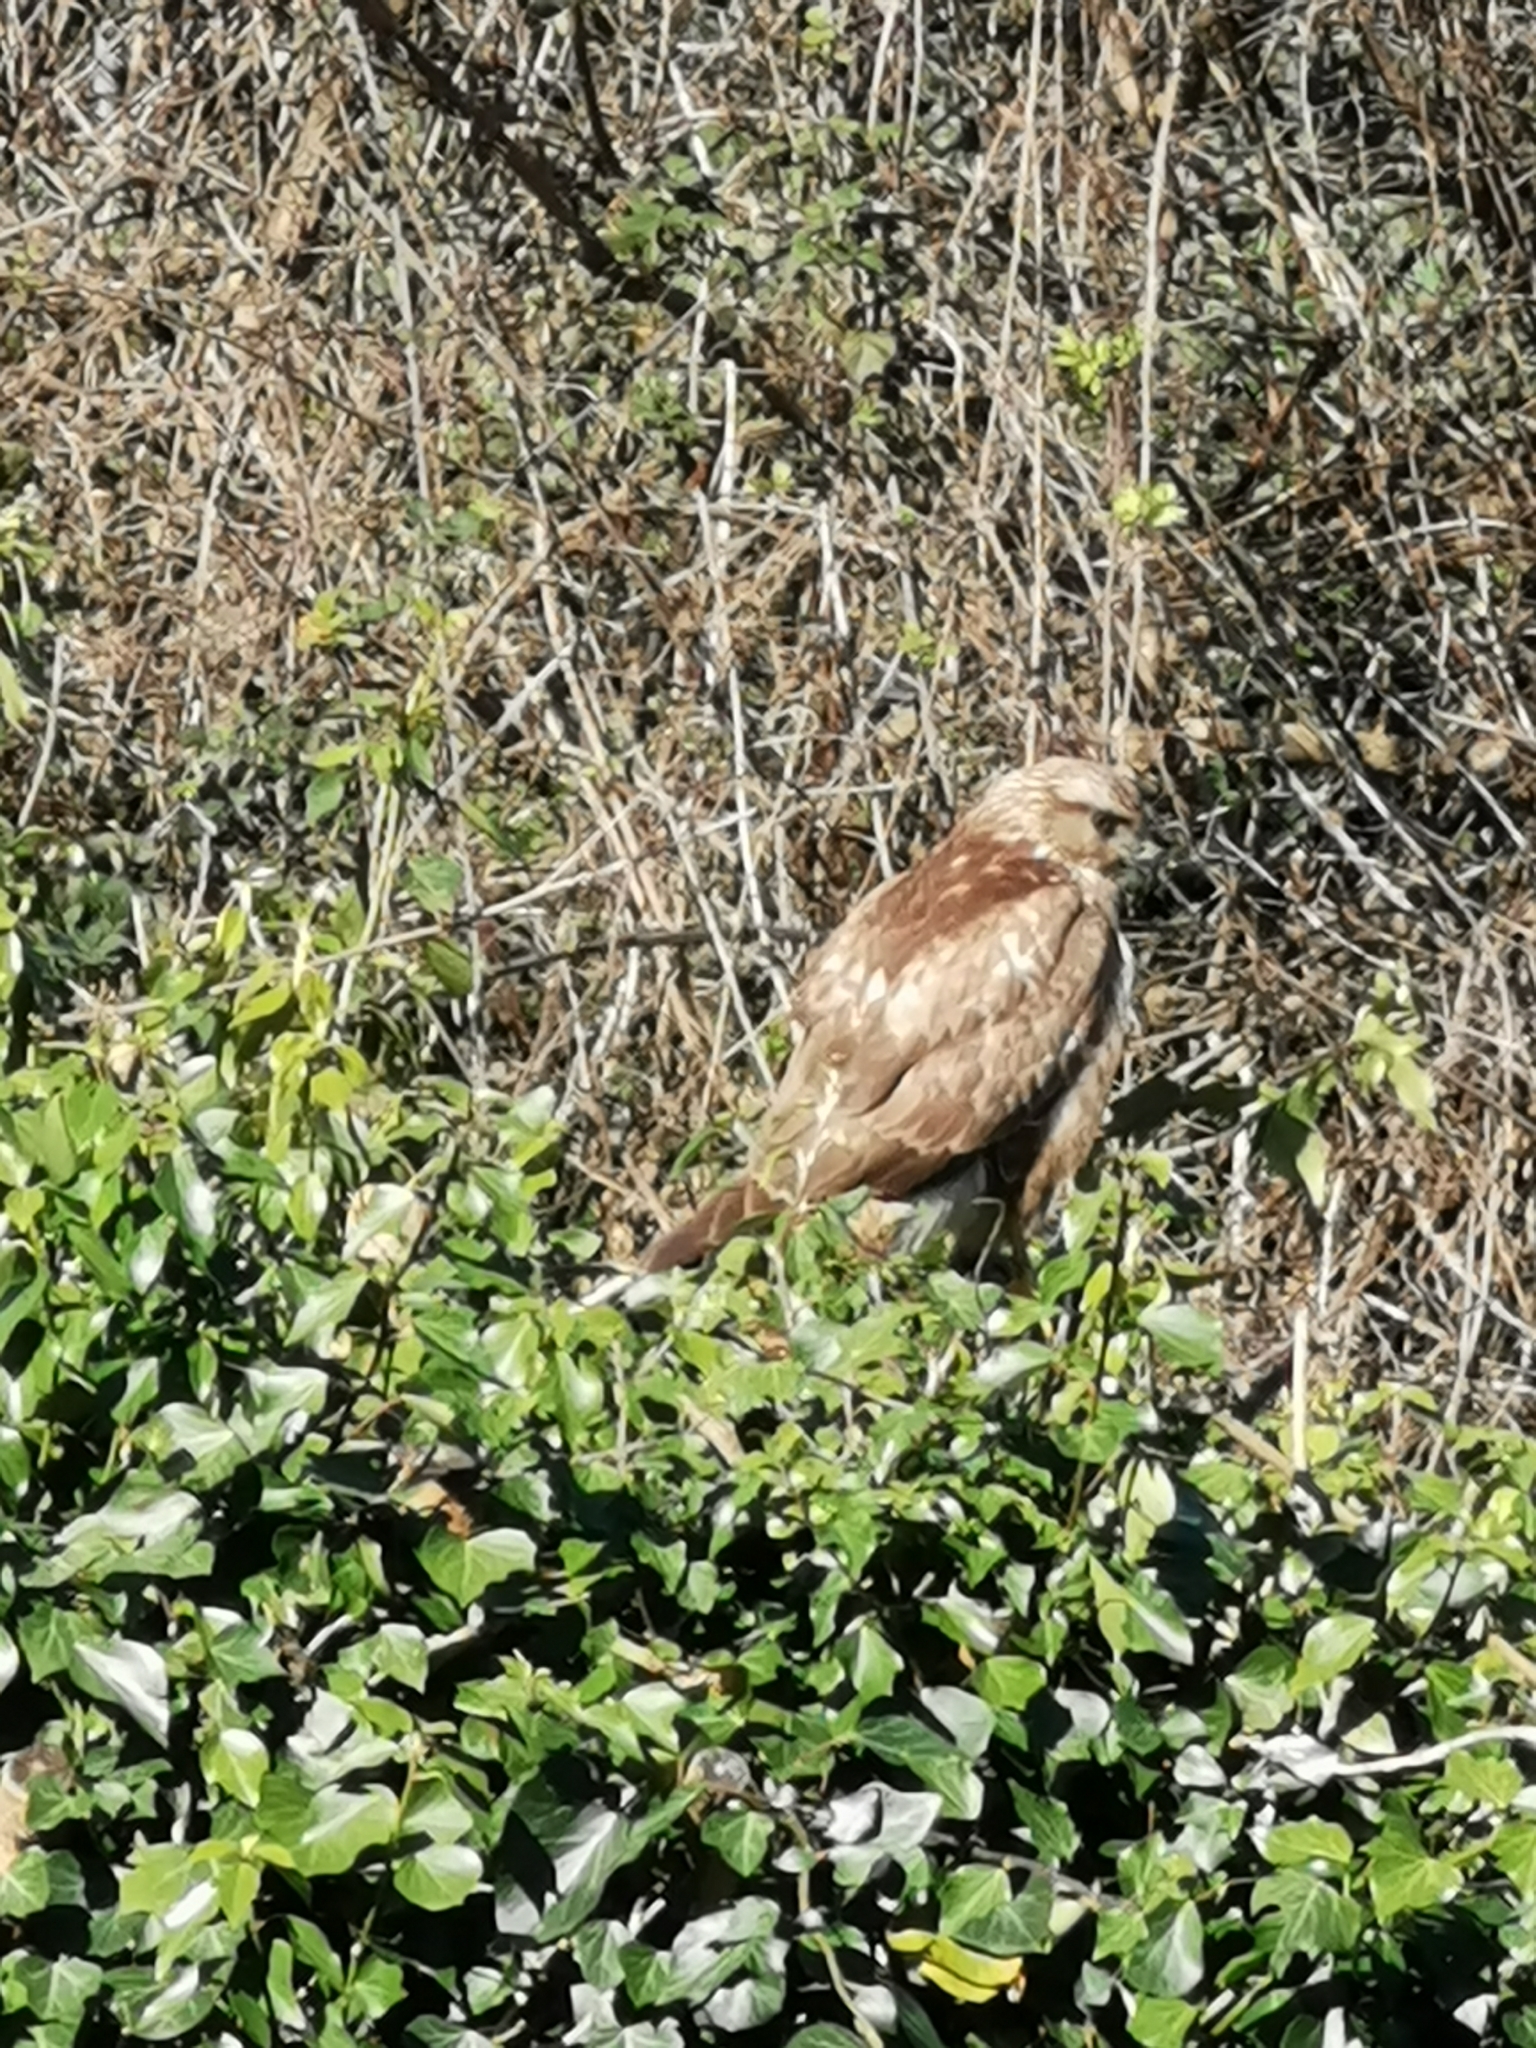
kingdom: Animalia
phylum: Chordata
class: Aves
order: Accipitriformes
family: Accipitridae
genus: Buteo
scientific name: Buteo buteo
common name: Common buzzard
